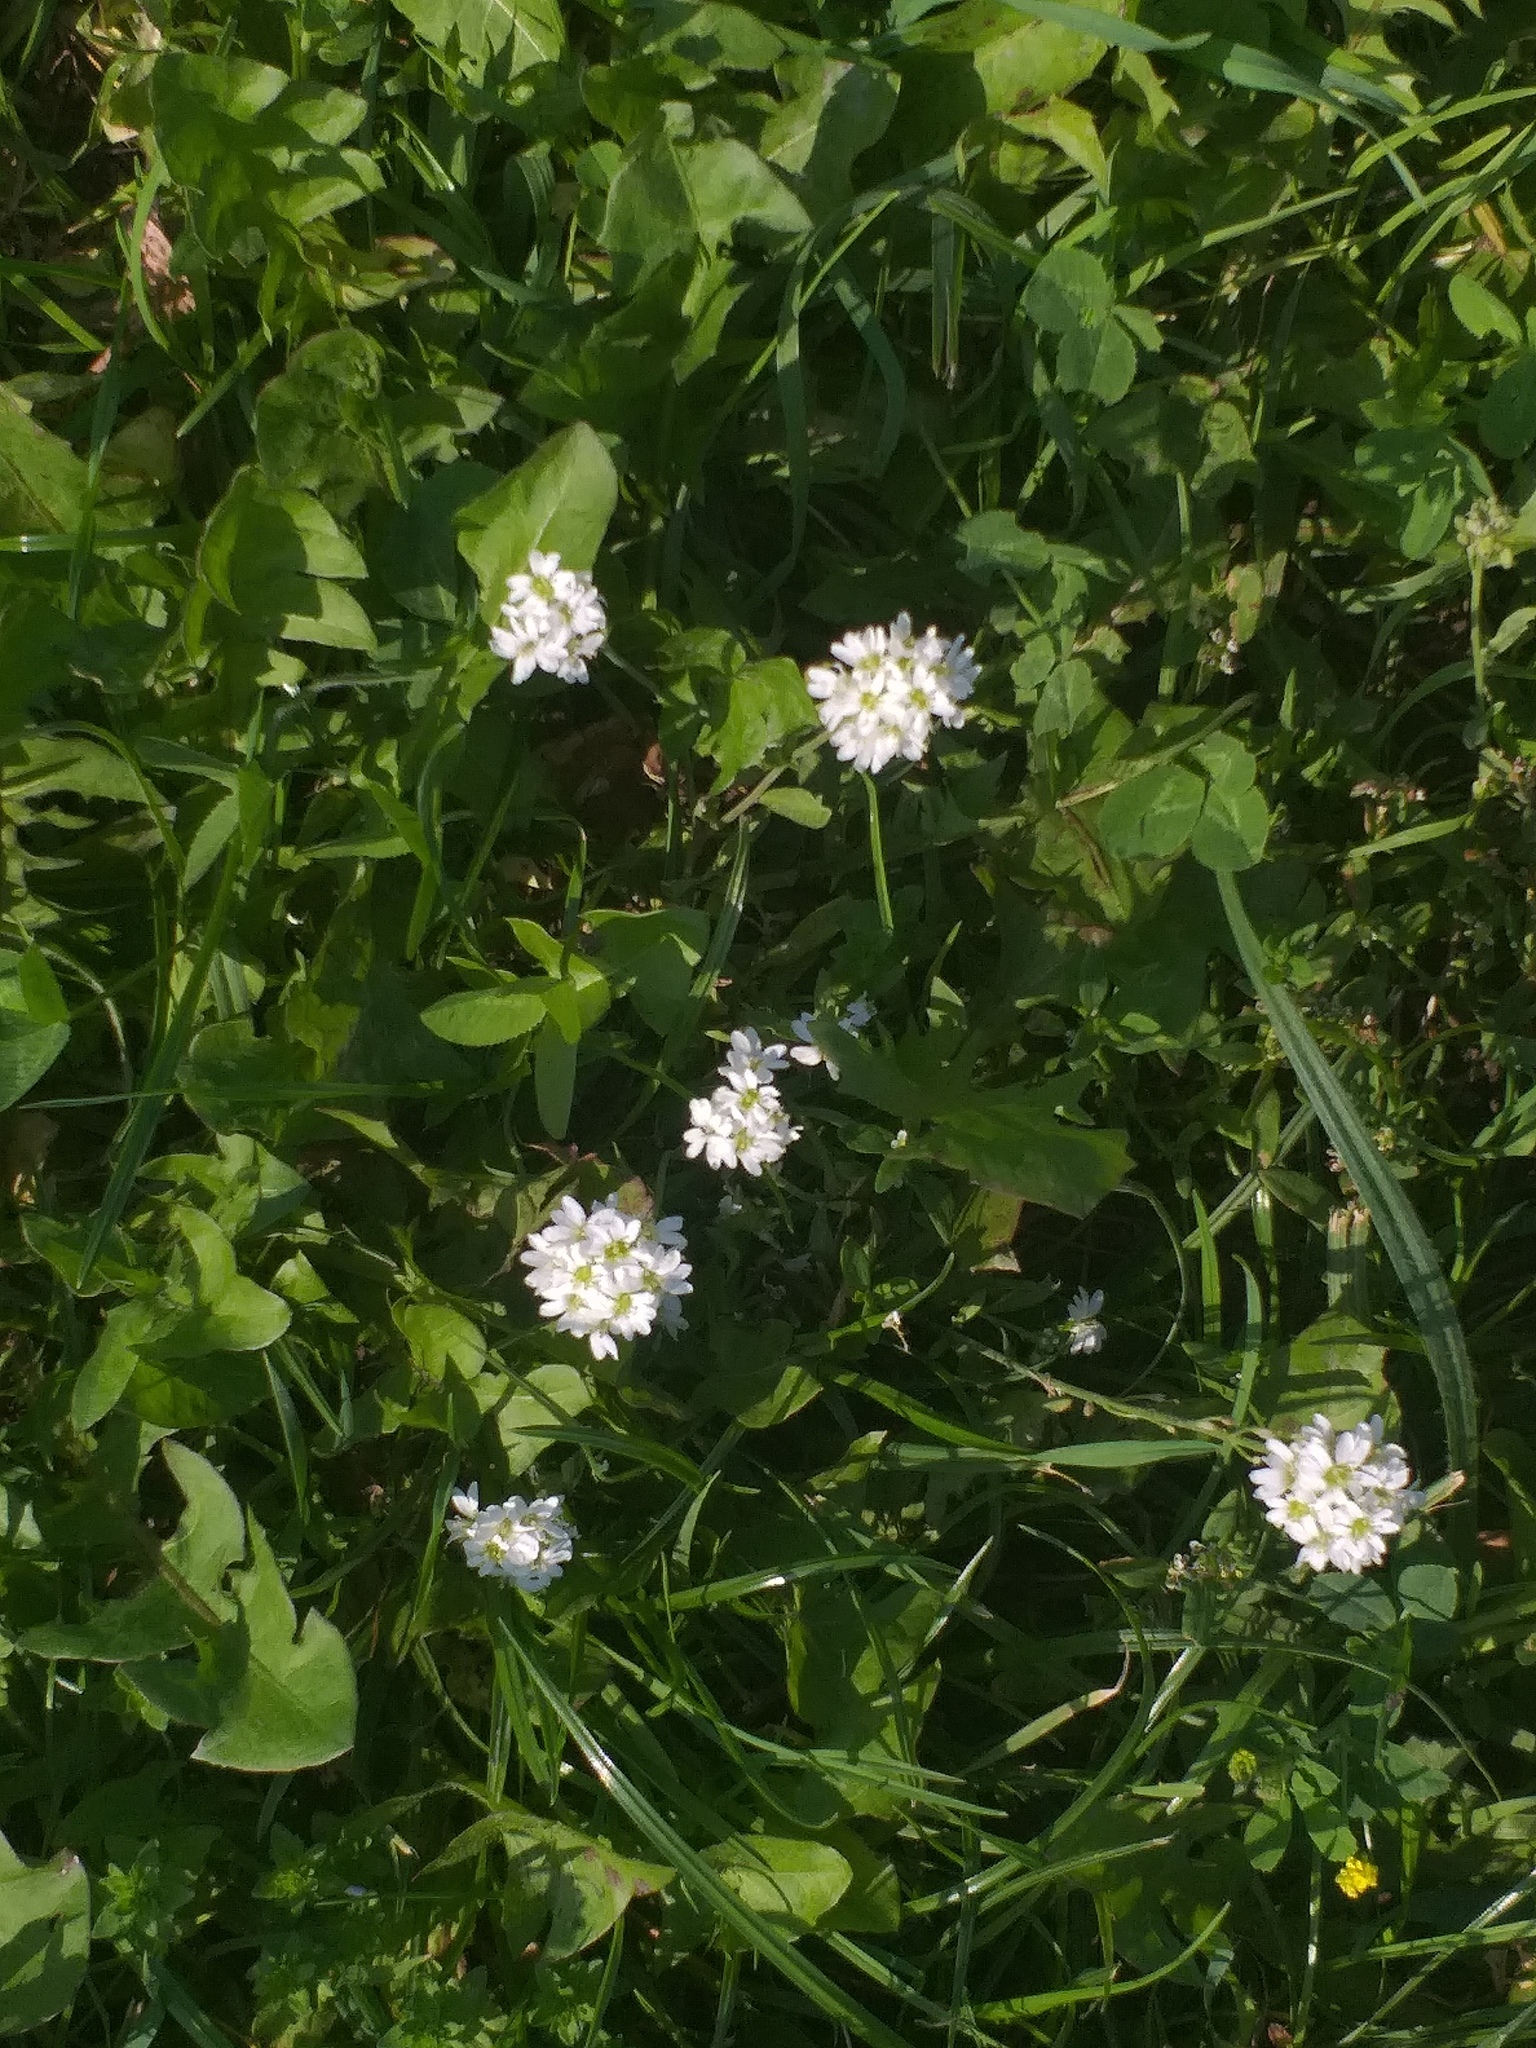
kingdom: Plantae
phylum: Tracheophyta
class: Magnoliopsida
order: Brassicales
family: Brassicaceae
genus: Berteroa
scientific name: Berteroa incana
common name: Hoary alison
